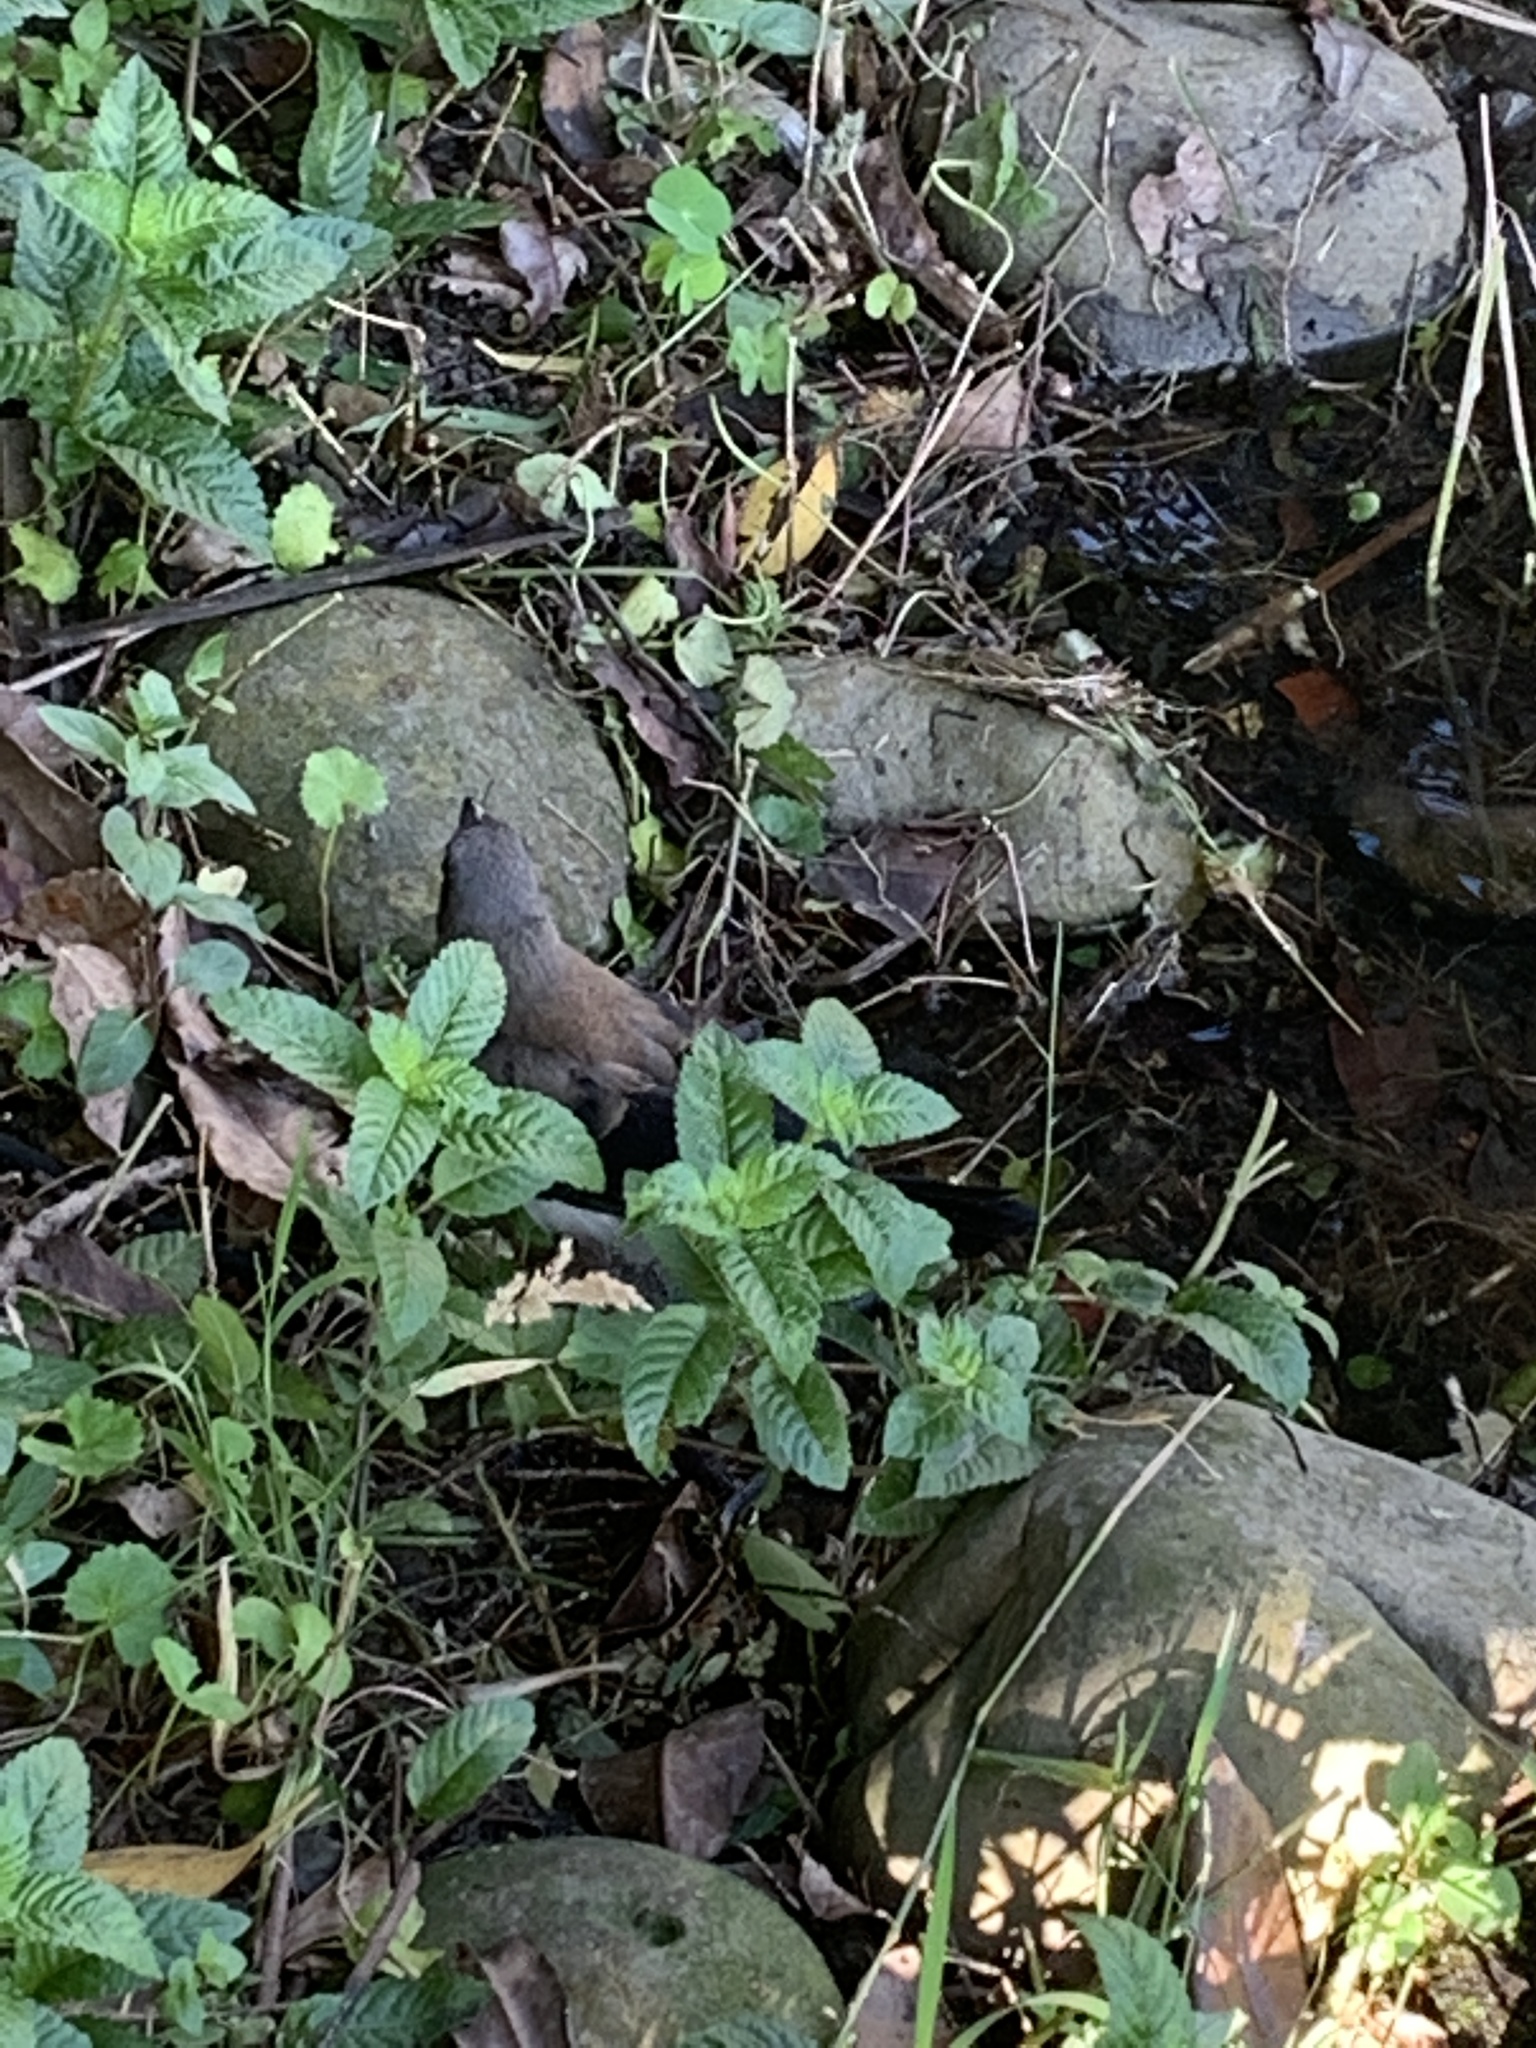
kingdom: Animalia
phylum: Chordata
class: Aves
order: Passeriformes
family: Corvidae
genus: Dendrocitta
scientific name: Dendrocitta formosae
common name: Grey treepie
